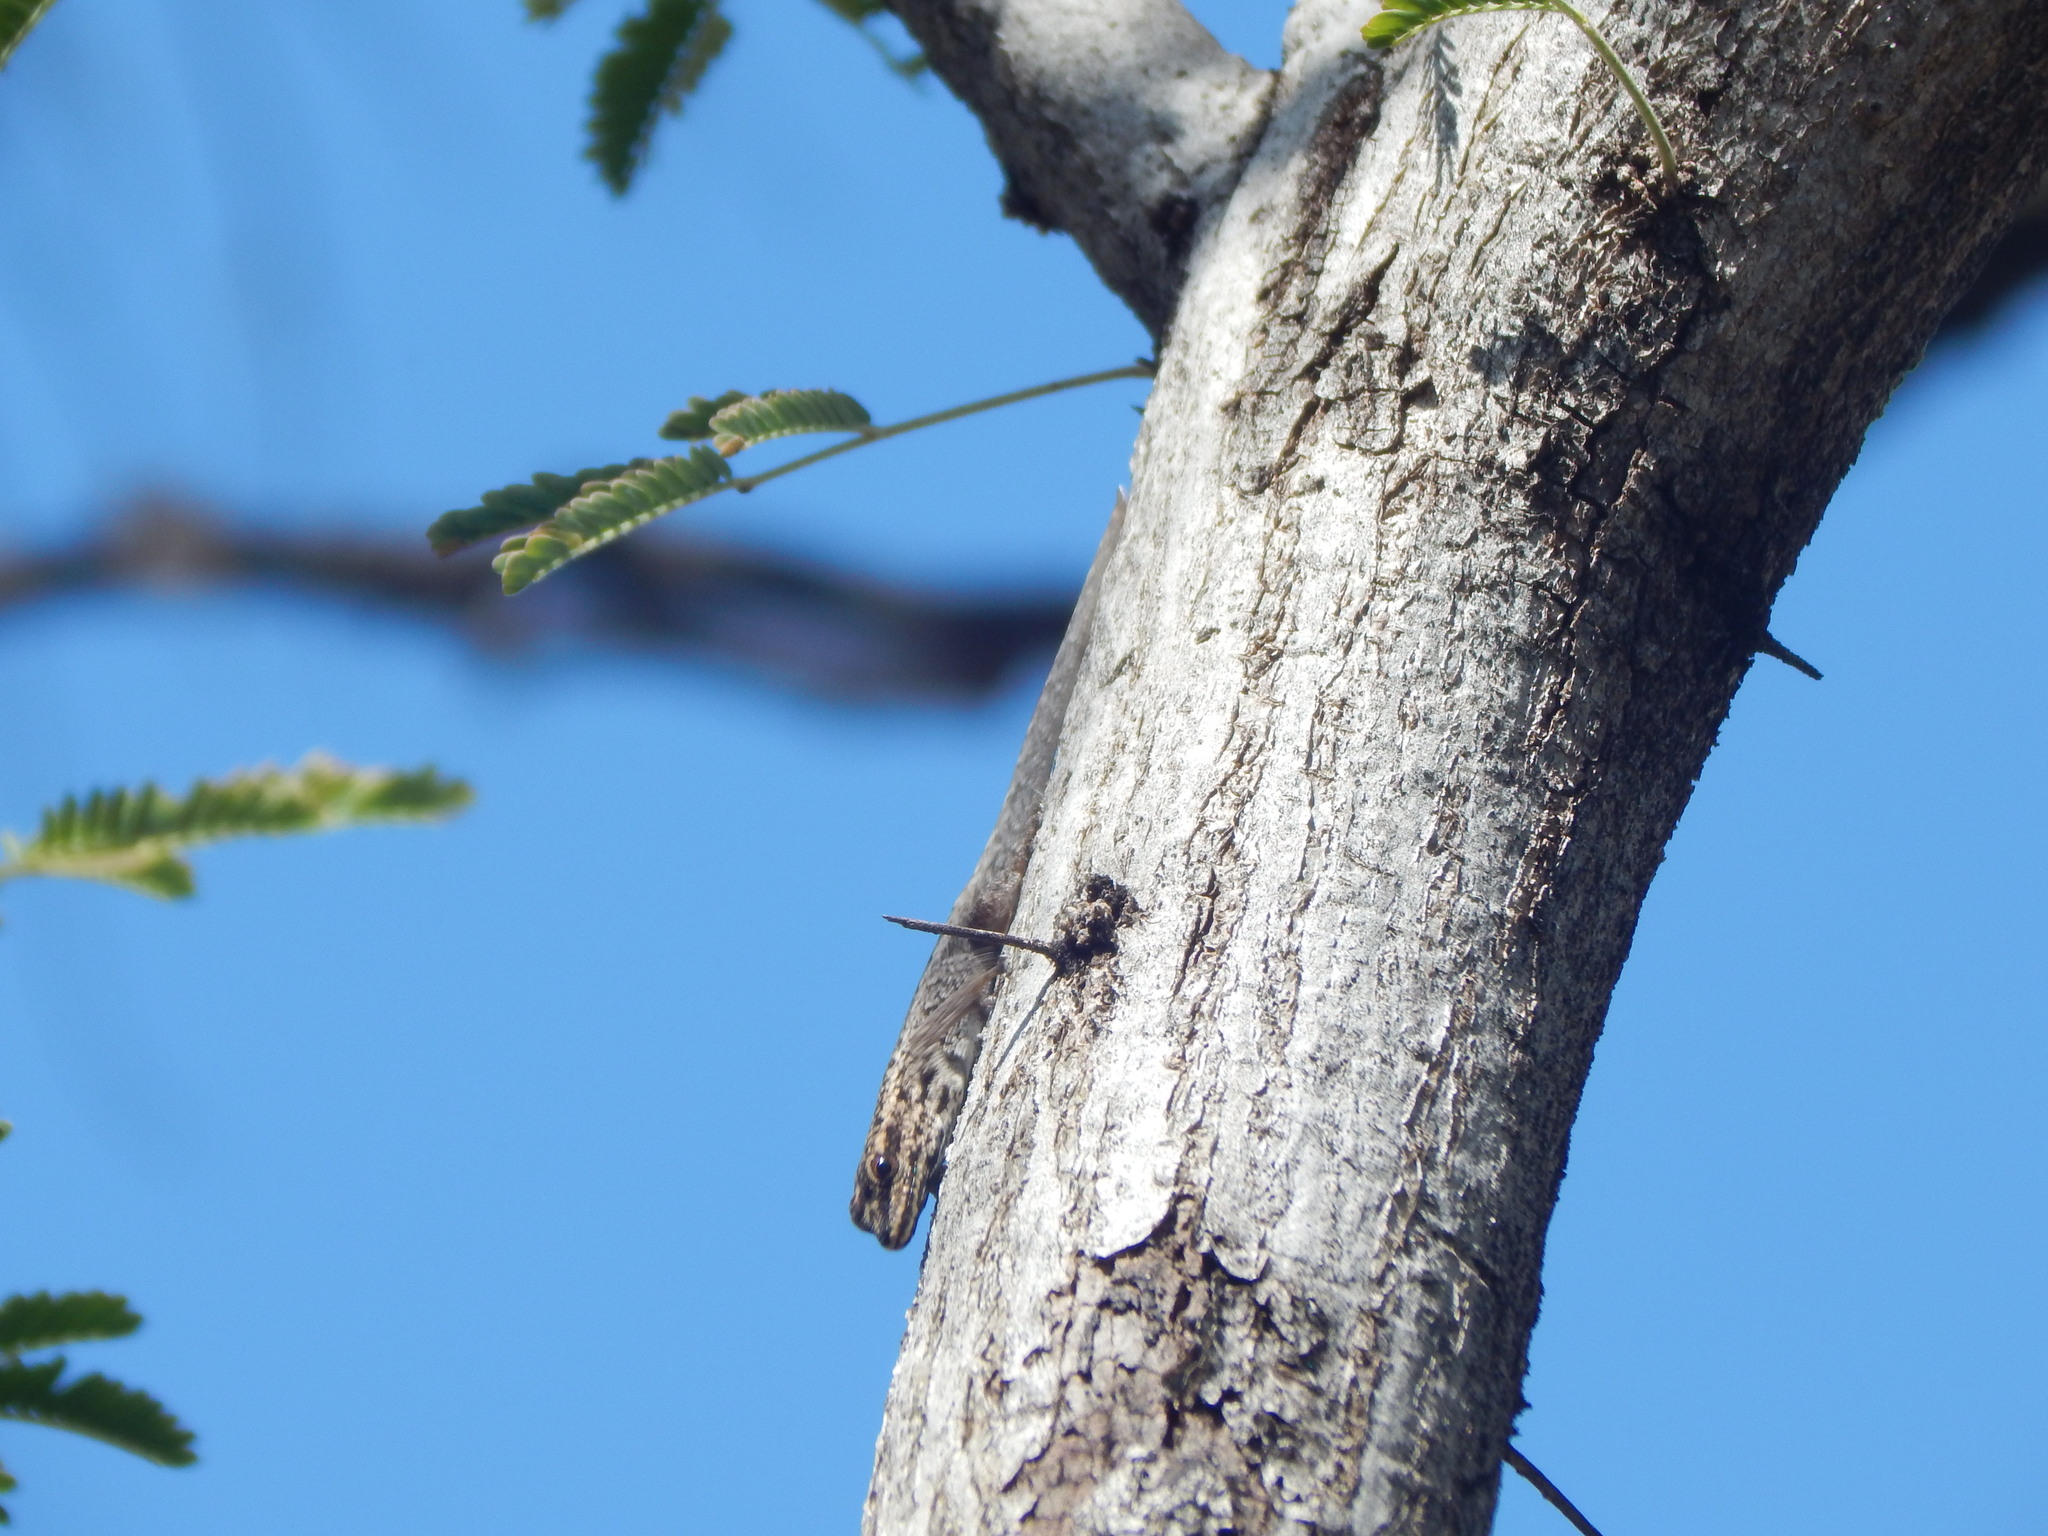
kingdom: Animalia
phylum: Chordata
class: Squamata
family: Gekkonidae
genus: Lygodactylus
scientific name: Lygodactylus picturatus
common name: Painted dwarf gecko
